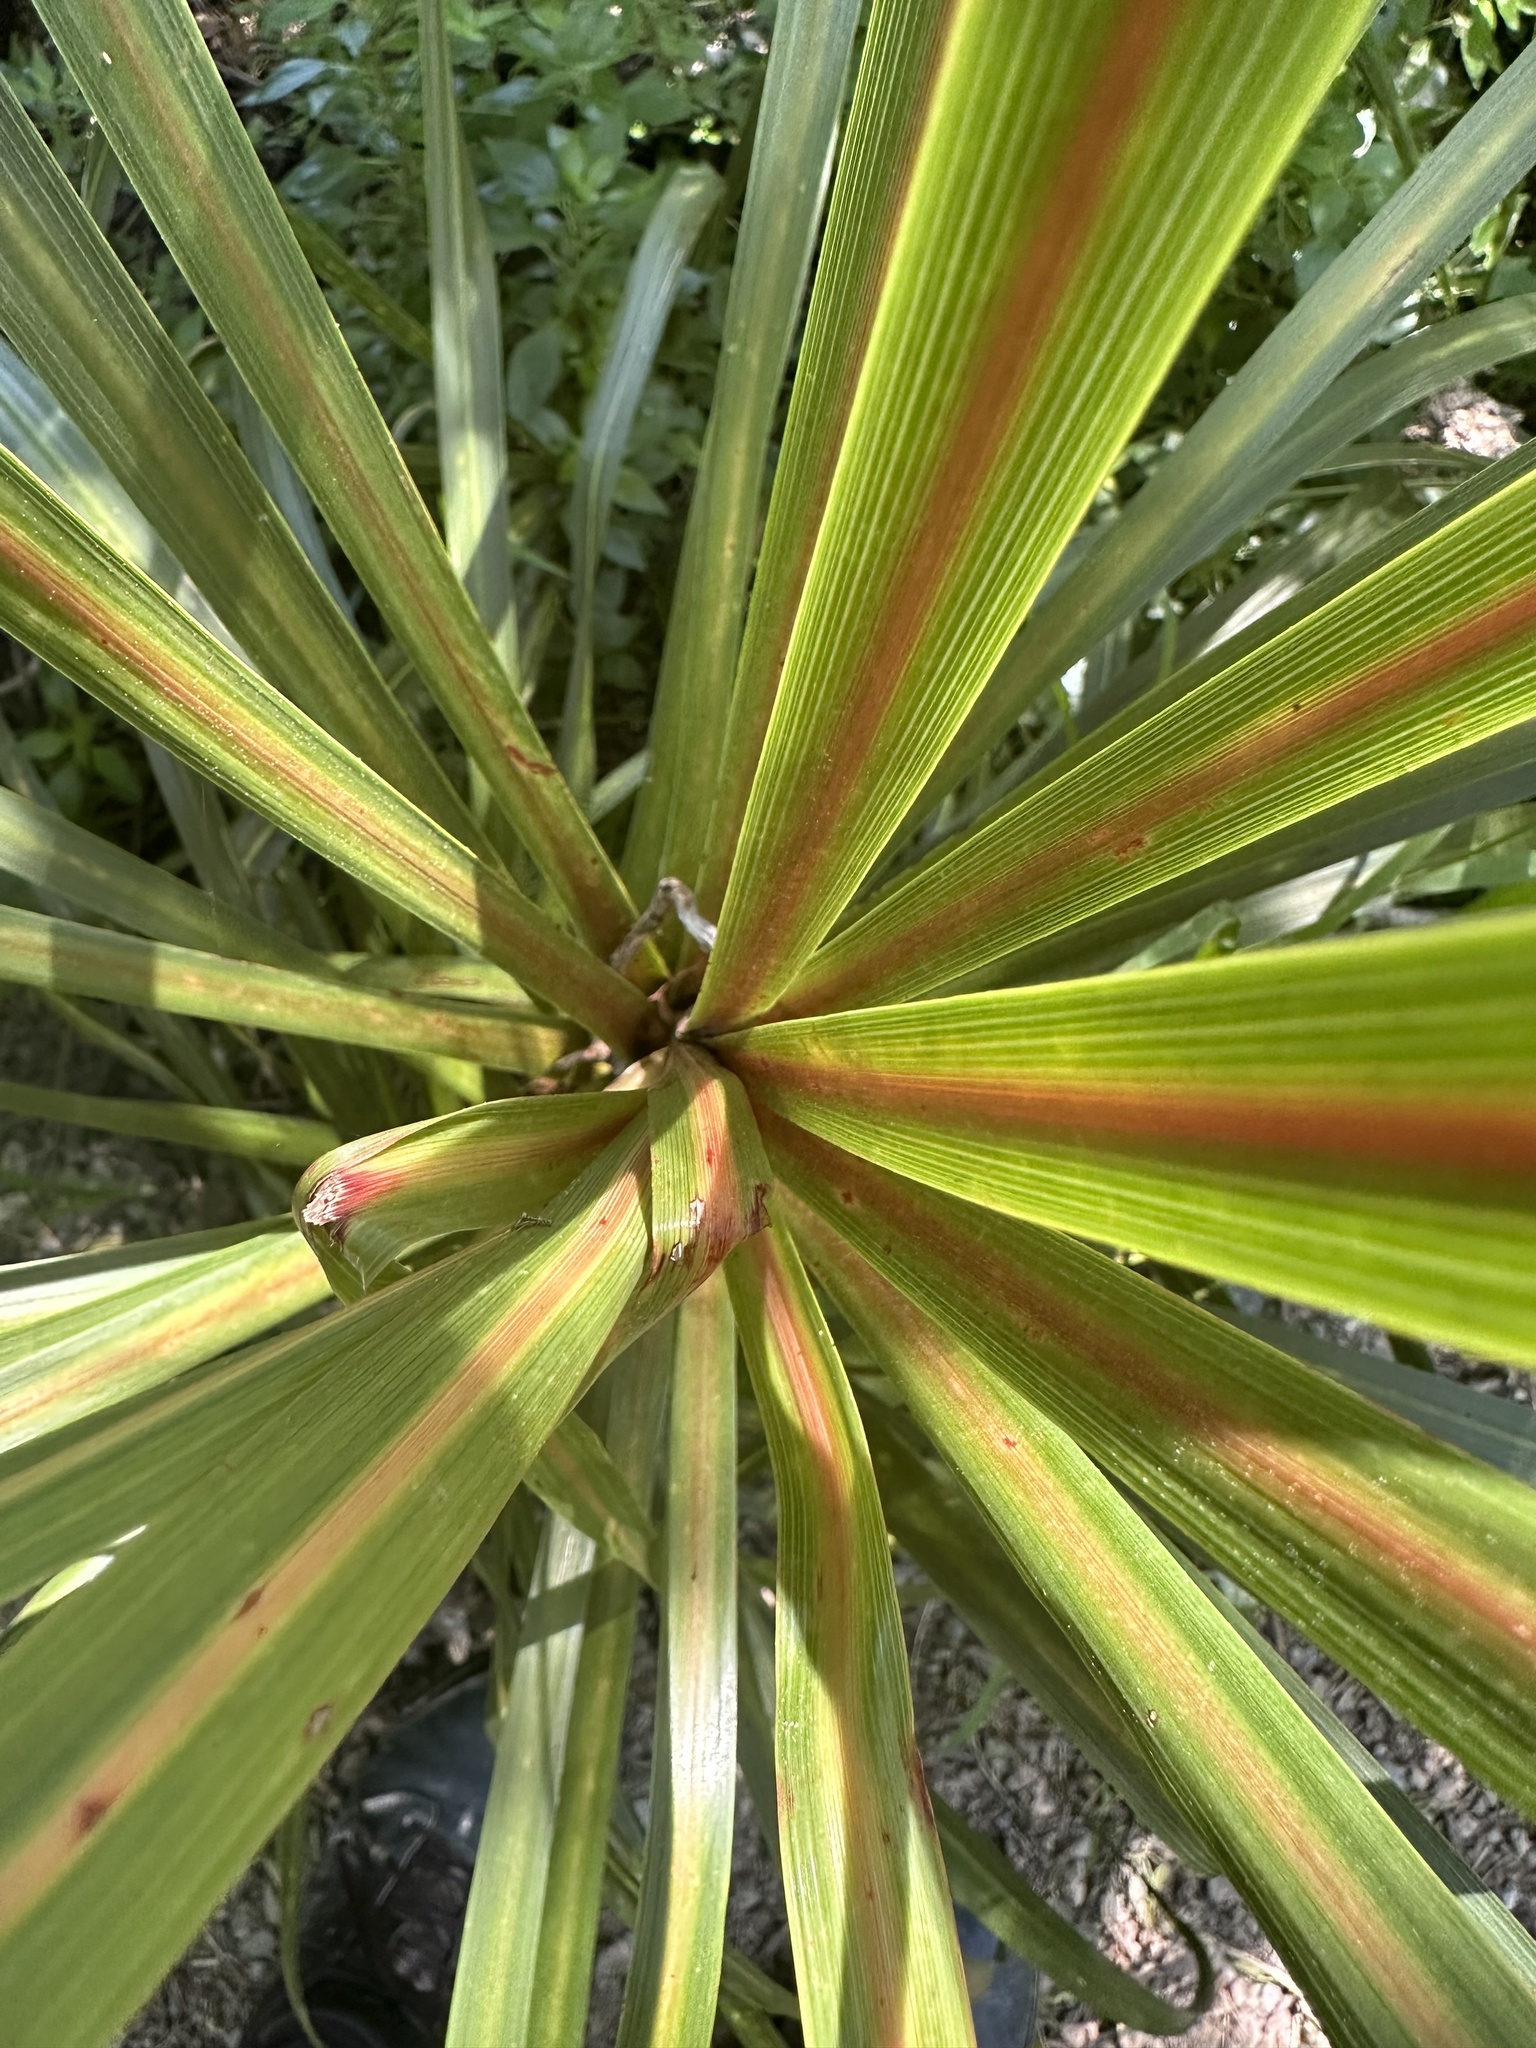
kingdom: Plantae
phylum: Tracheophyta
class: Liliopsida
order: Asparagales
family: Asparagaceae
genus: Cordyline
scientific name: Cordyline australis
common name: Cabbage-palm
